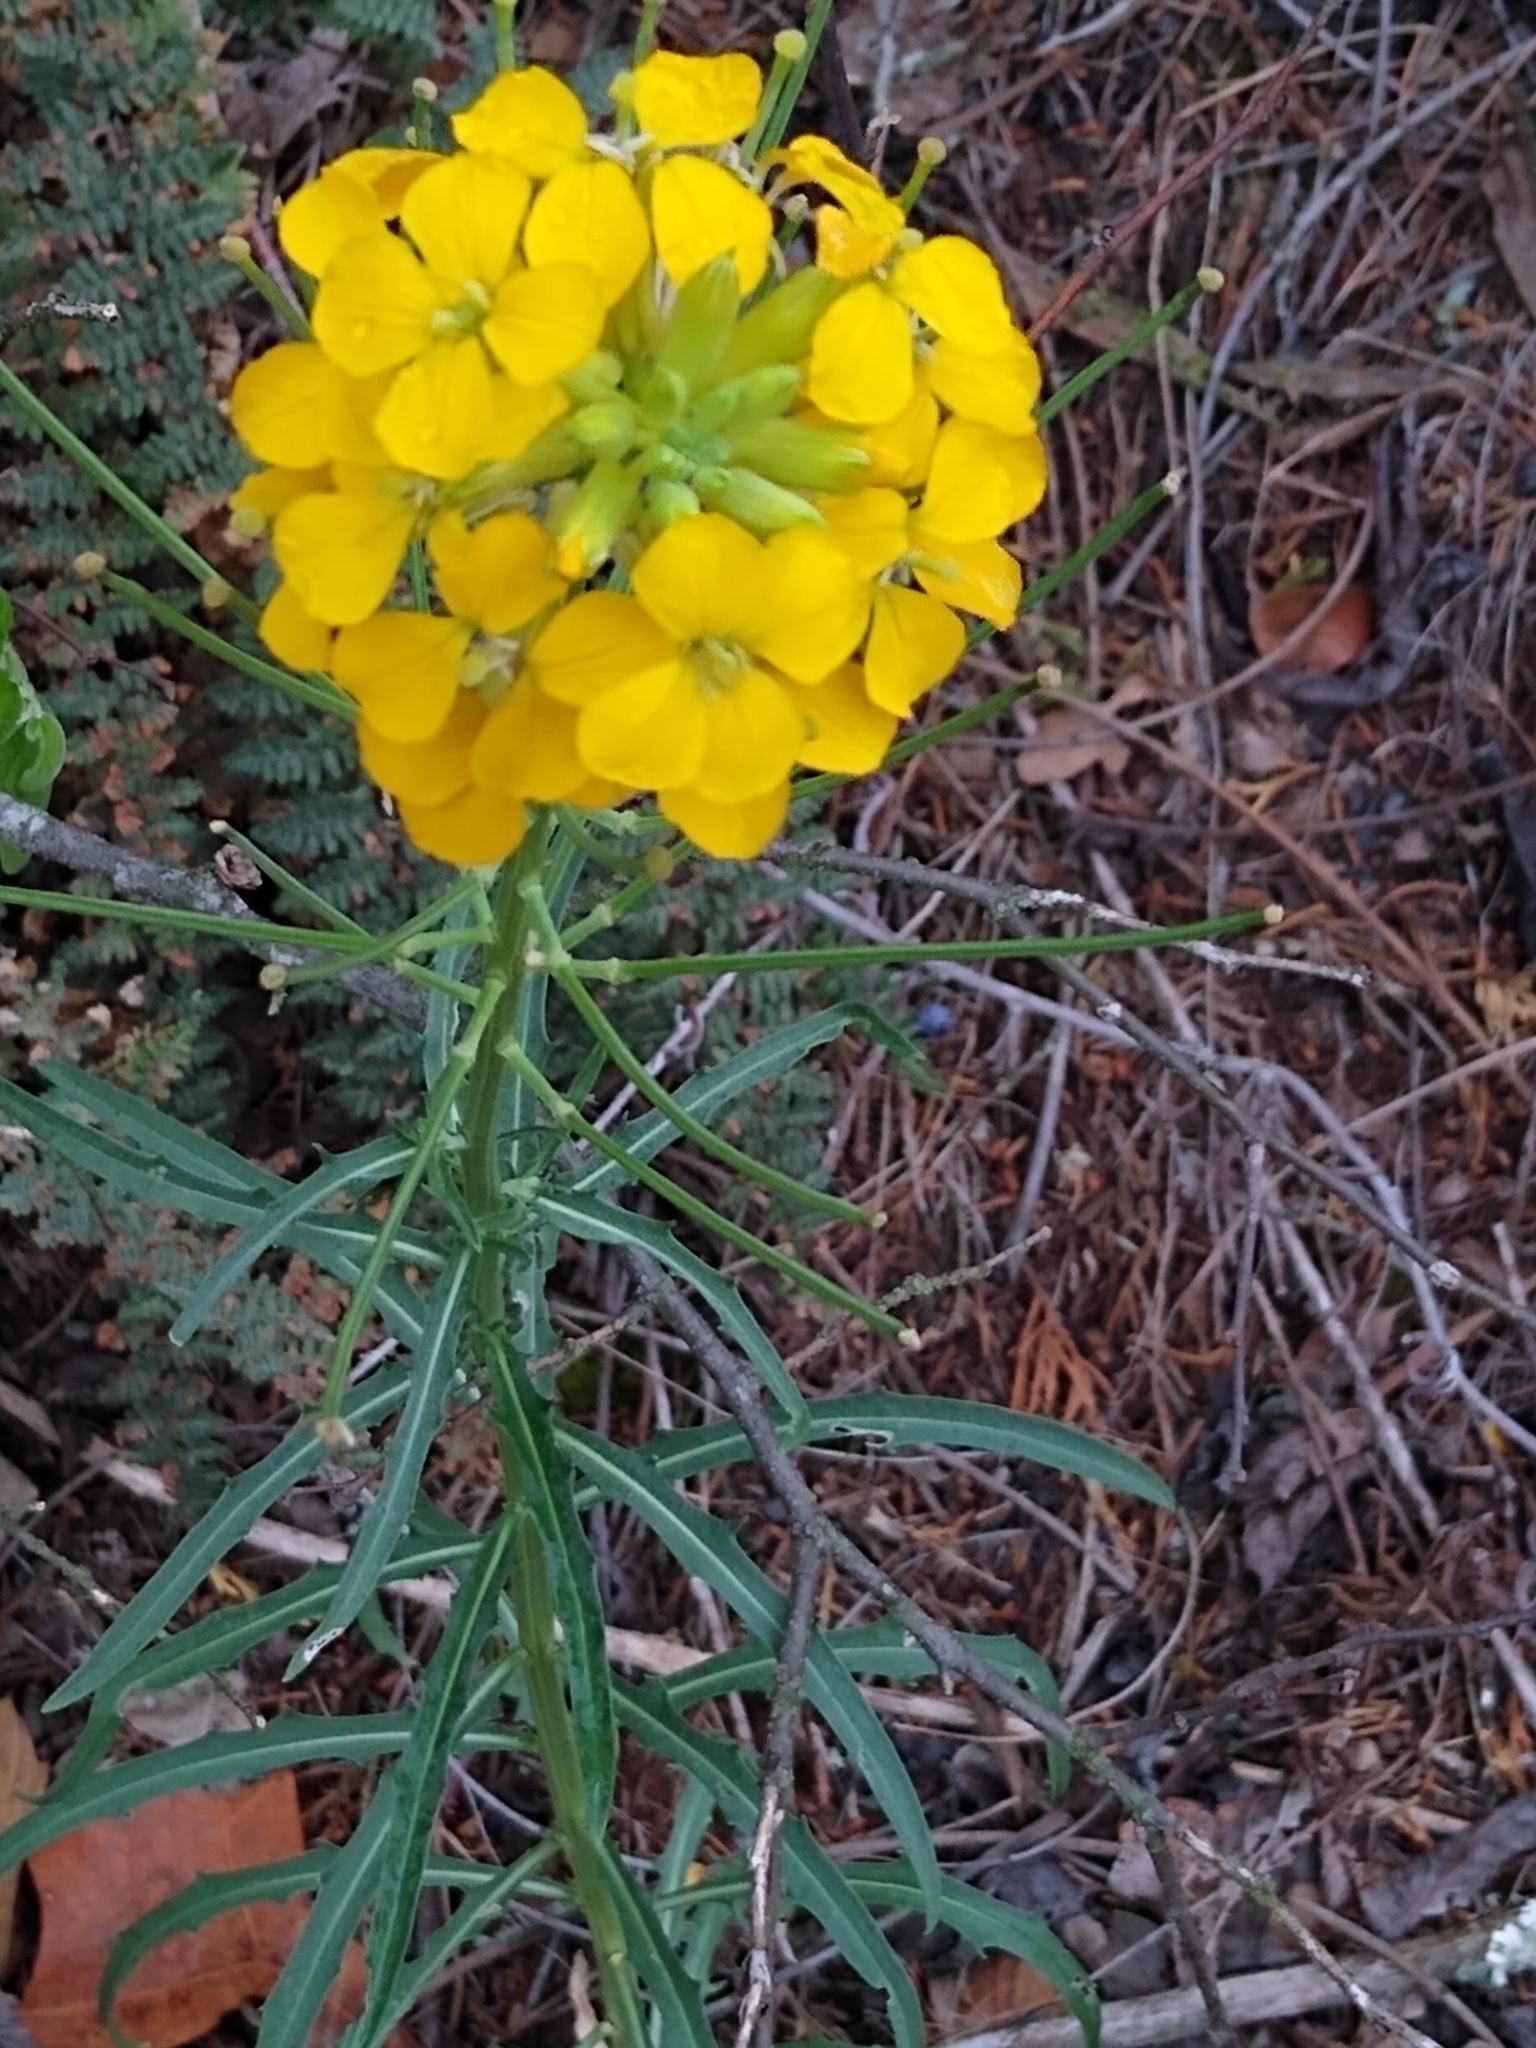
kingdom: Plantae
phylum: Tracheophyta
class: Magnoliopsida
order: Brassicales
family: Brassicaceae
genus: Erysimum
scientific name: Erysimum capitatum
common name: Western wallflower
